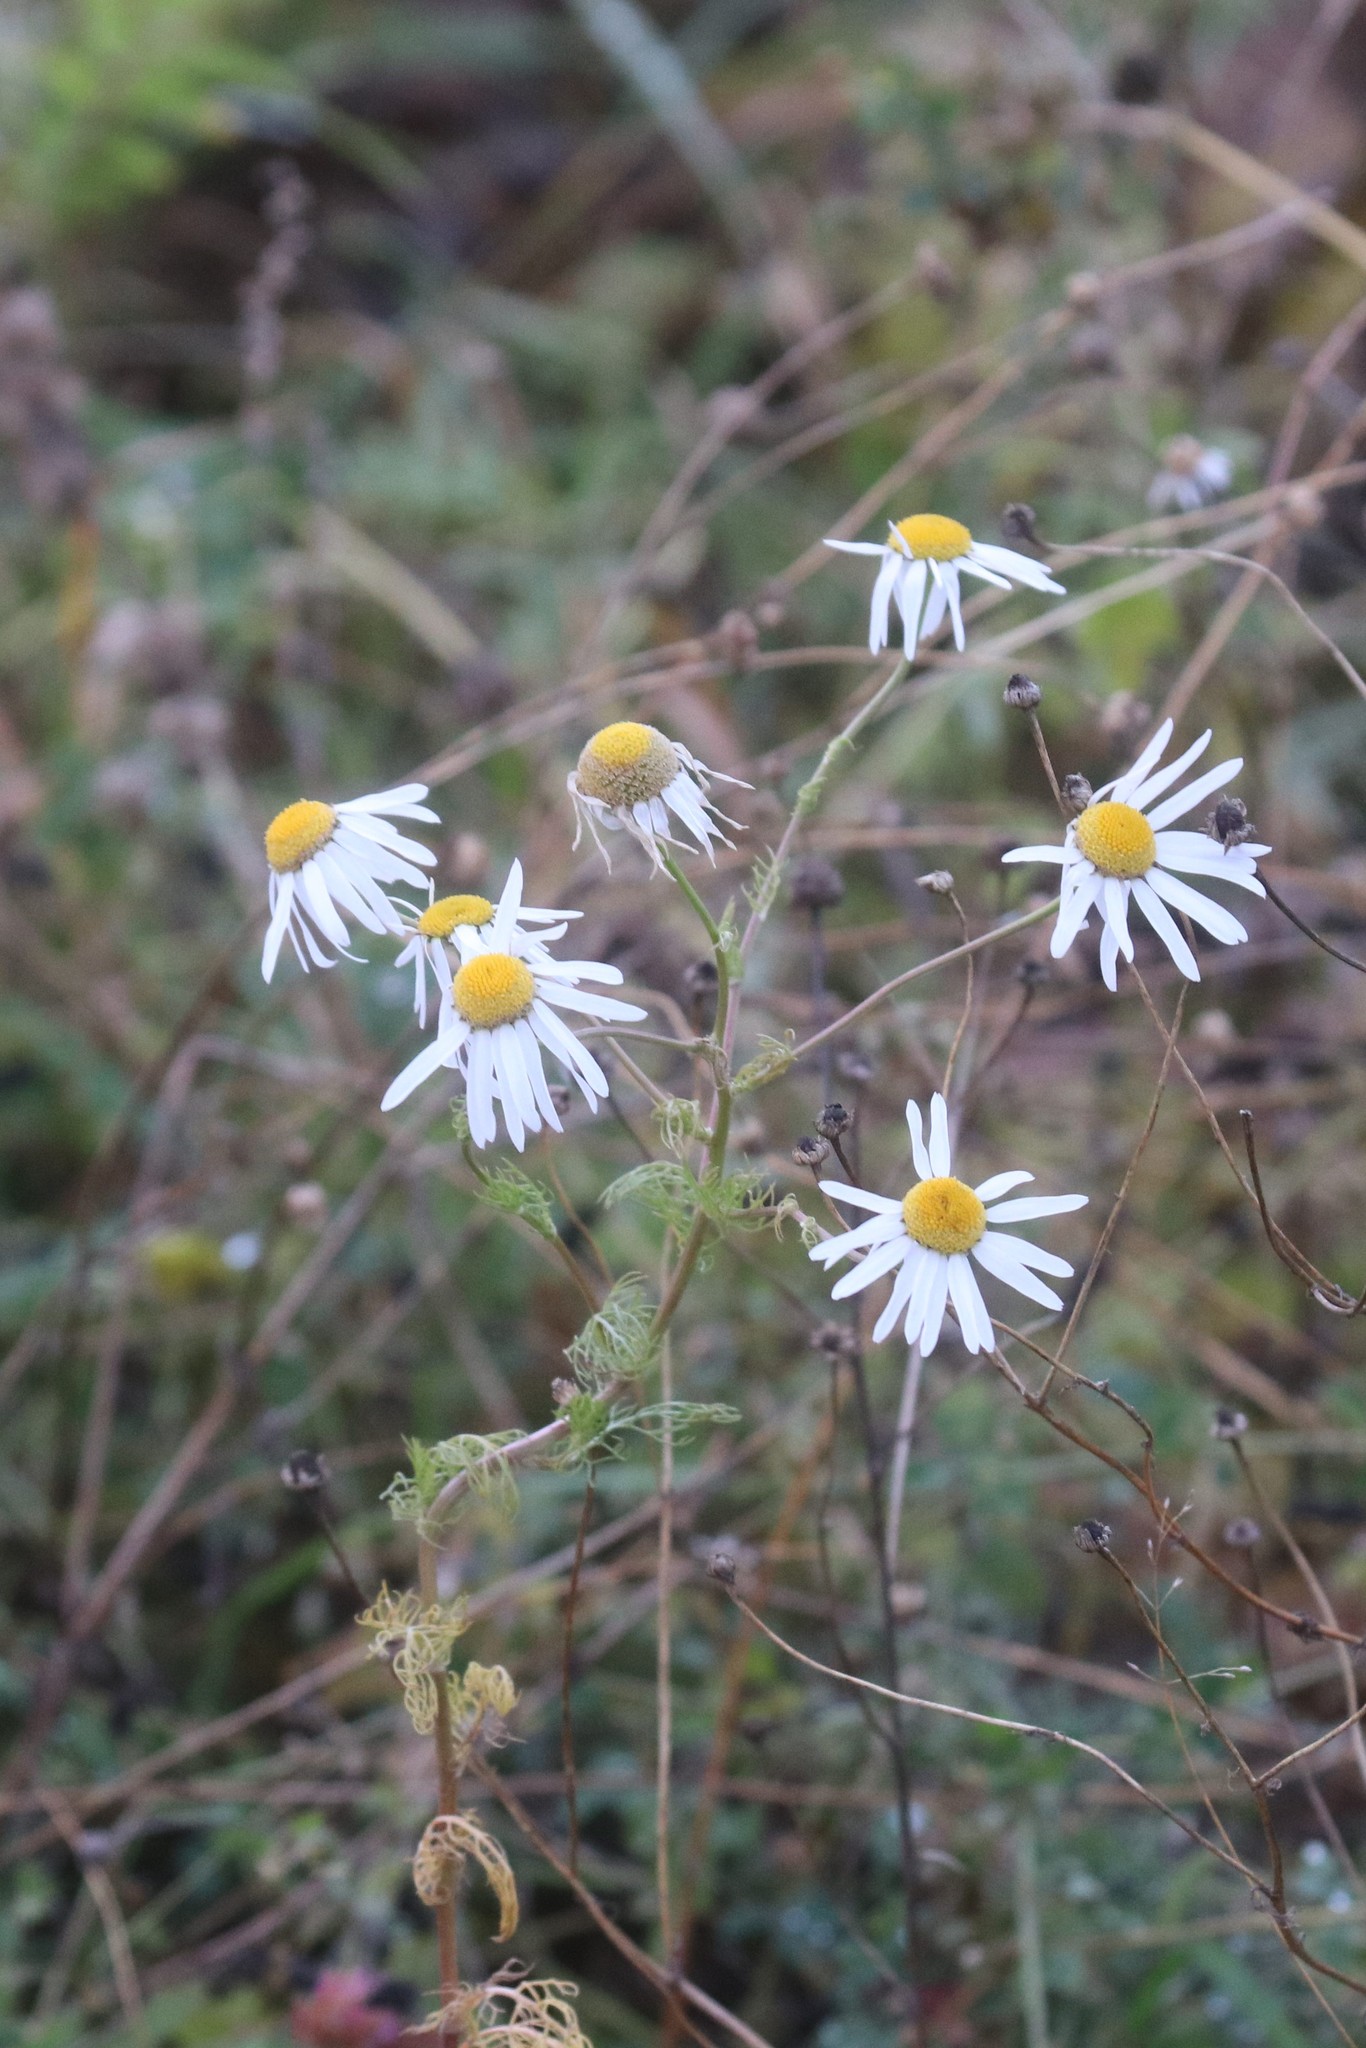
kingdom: Plantae
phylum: Tracheophyta
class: Magnoliopsida
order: Asterales
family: Asteraceae
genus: Tripleurospermum
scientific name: Tripleurospermum inodorum
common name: Scentless mayweed
